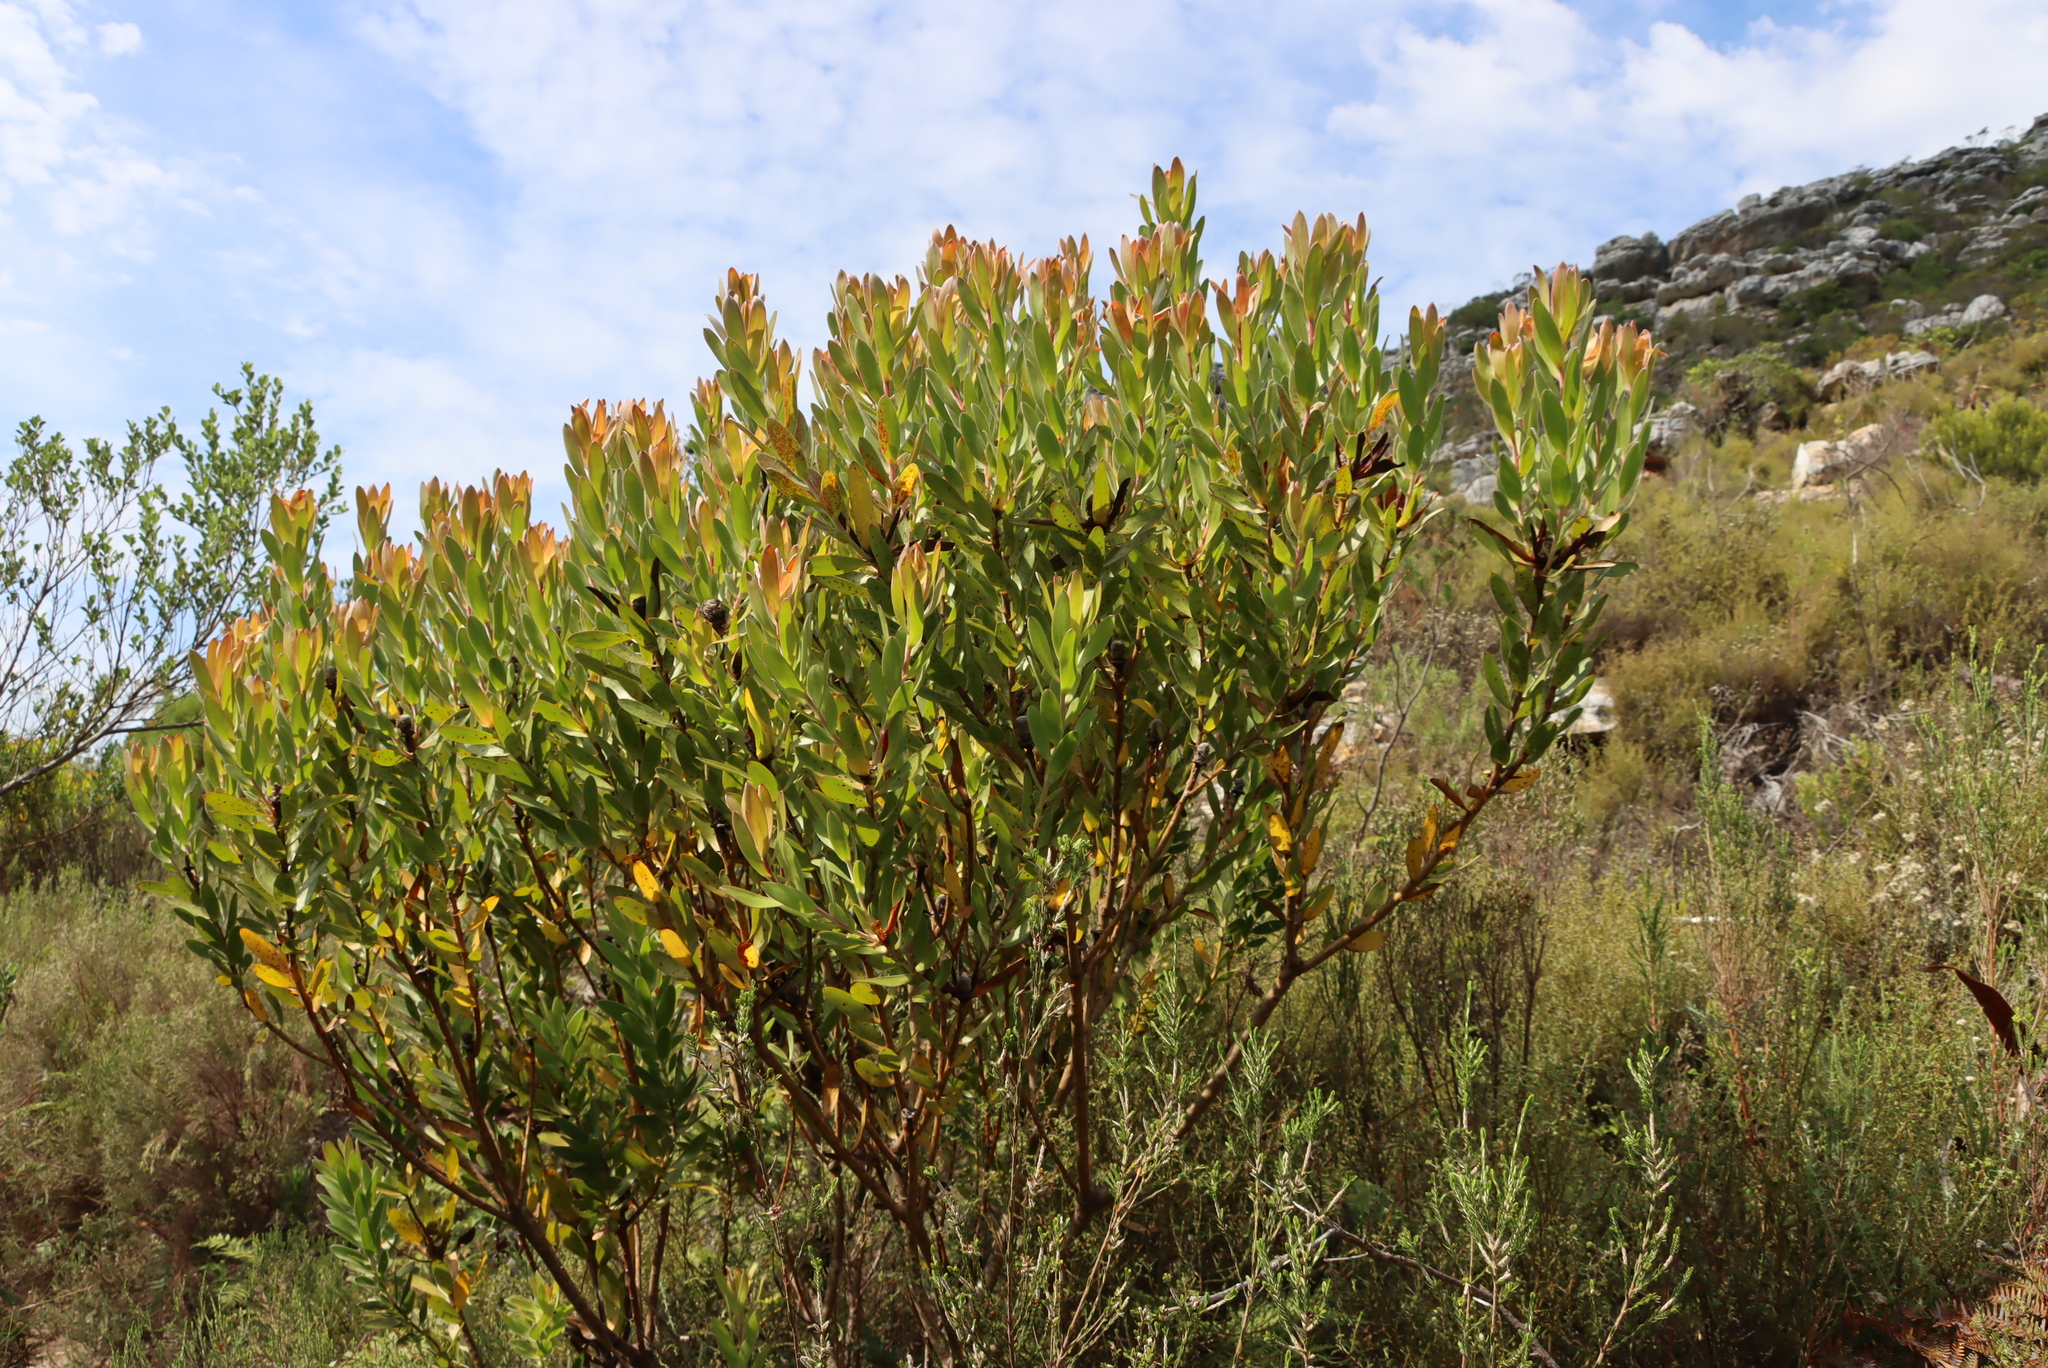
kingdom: Plantae
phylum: Tracheophyta
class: Magnoliopsida
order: Proteales
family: Proteaceae
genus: Leucadendron
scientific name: Leucadendron laureolum
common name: Golden sunshinebush
